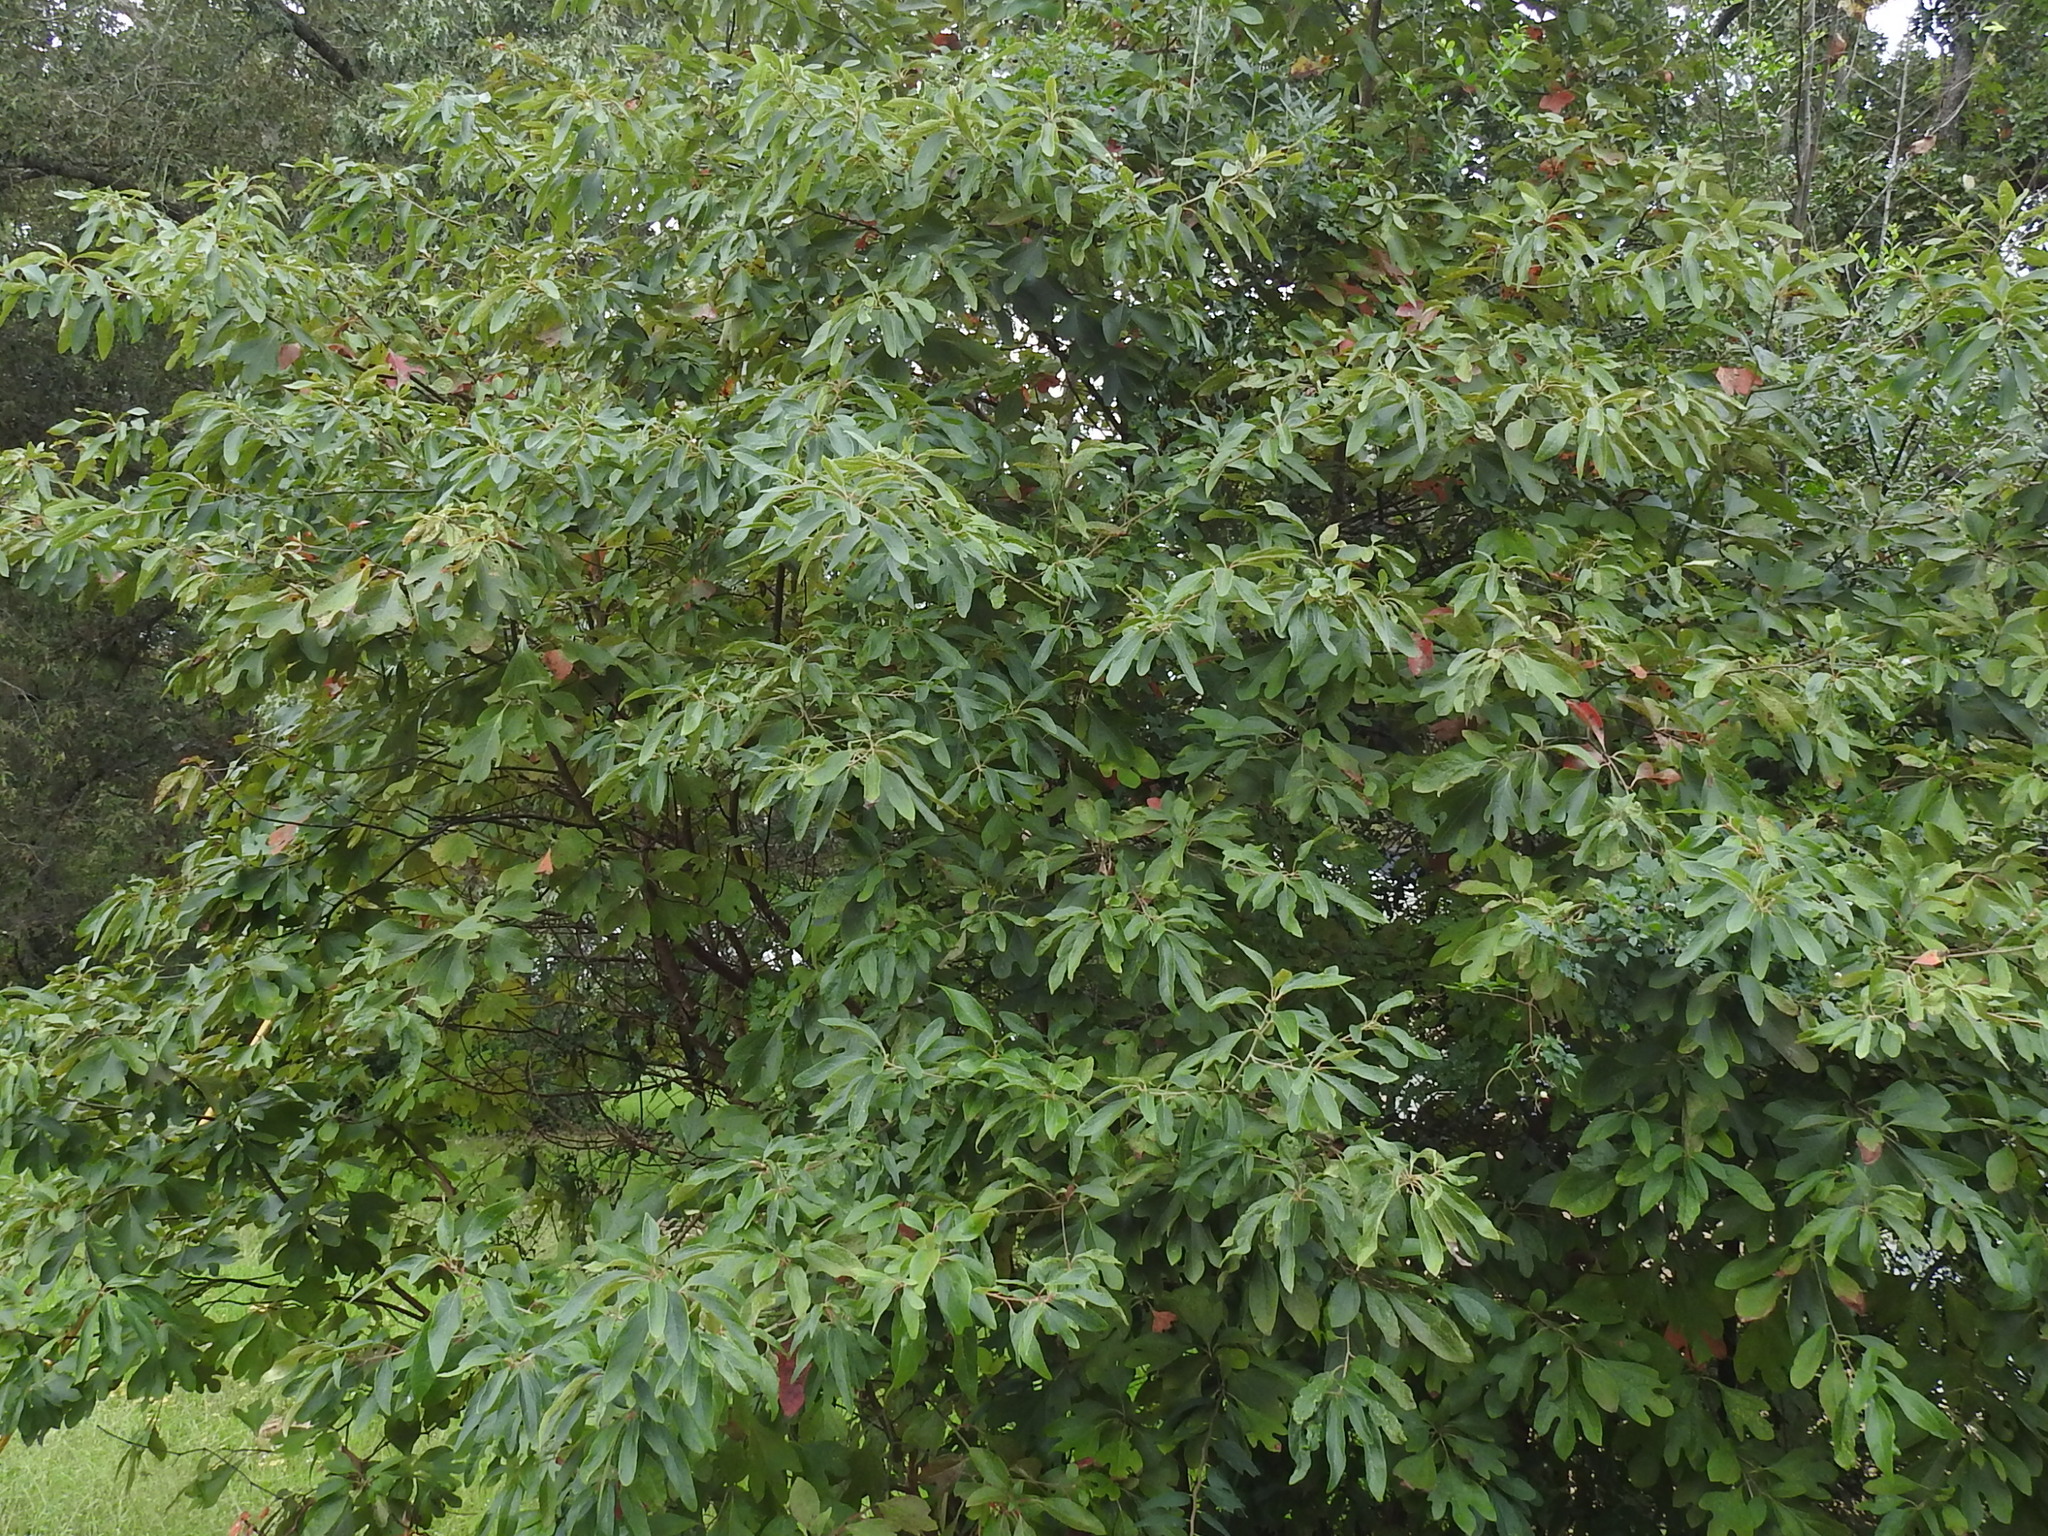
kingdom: Plantae
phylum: Tracheophyta
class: Magnoliopsida
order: Laurales
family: Lauraceae
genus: Sassafras
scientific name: Sassafras albidum
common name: Sassafras
